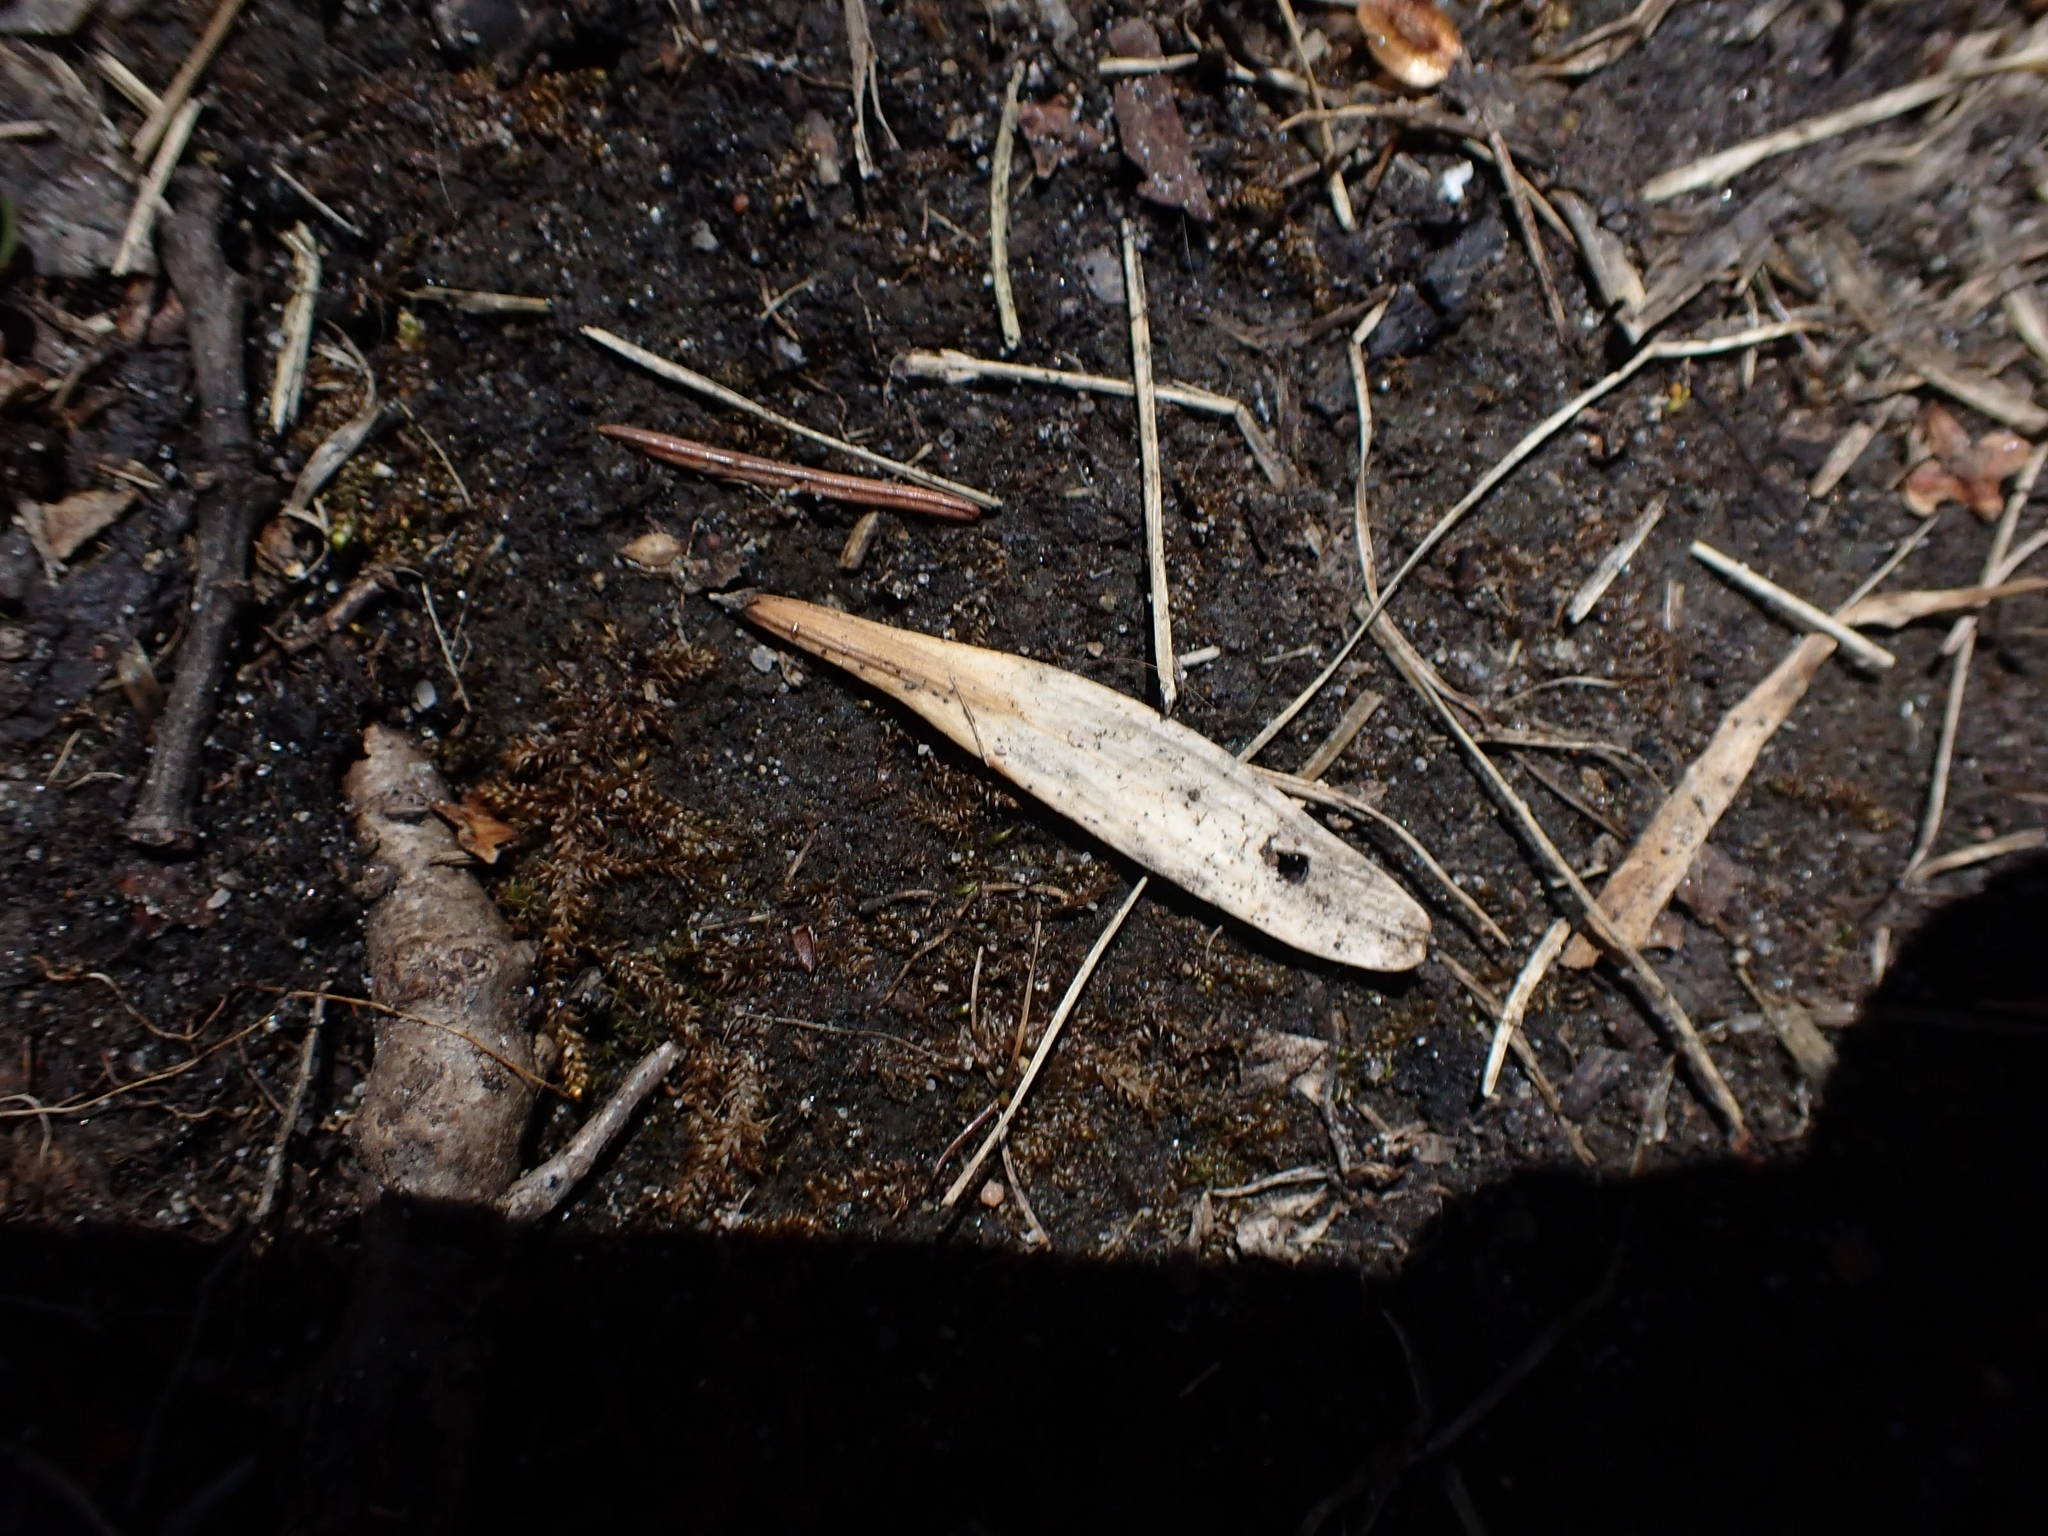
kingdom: Plantae
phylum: Tracheophyta
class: Magnoliopsida
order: Lamiales
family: Oleaceae
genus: Fraxinus
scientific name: Fraxinus pennsylvanica
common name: Green ash
